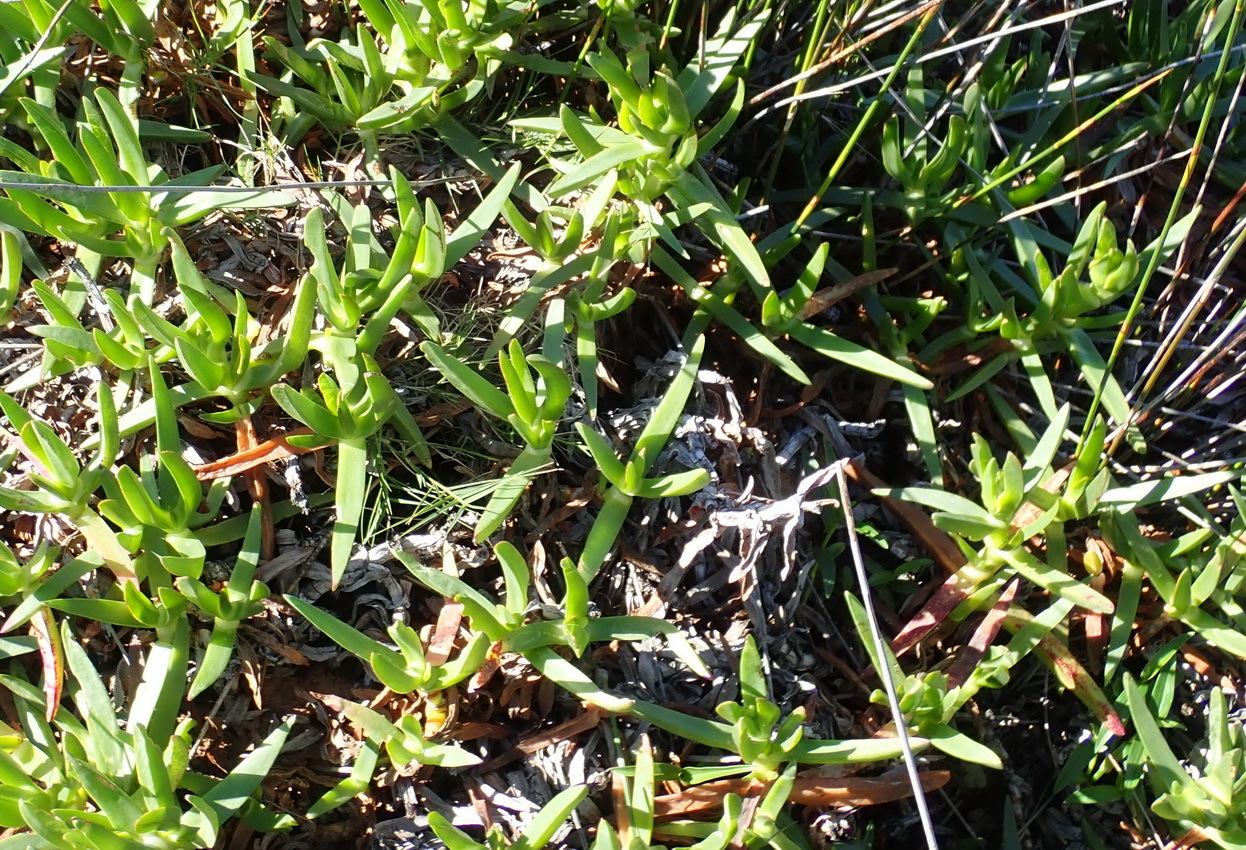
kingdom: Plantae
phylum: Tracheophyta
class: Magnoliopsida
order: Caryophyllales
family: Aizoaceae
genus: Carpobrotus
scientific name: Carpobrotus edulis
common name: Hottentot-fig
